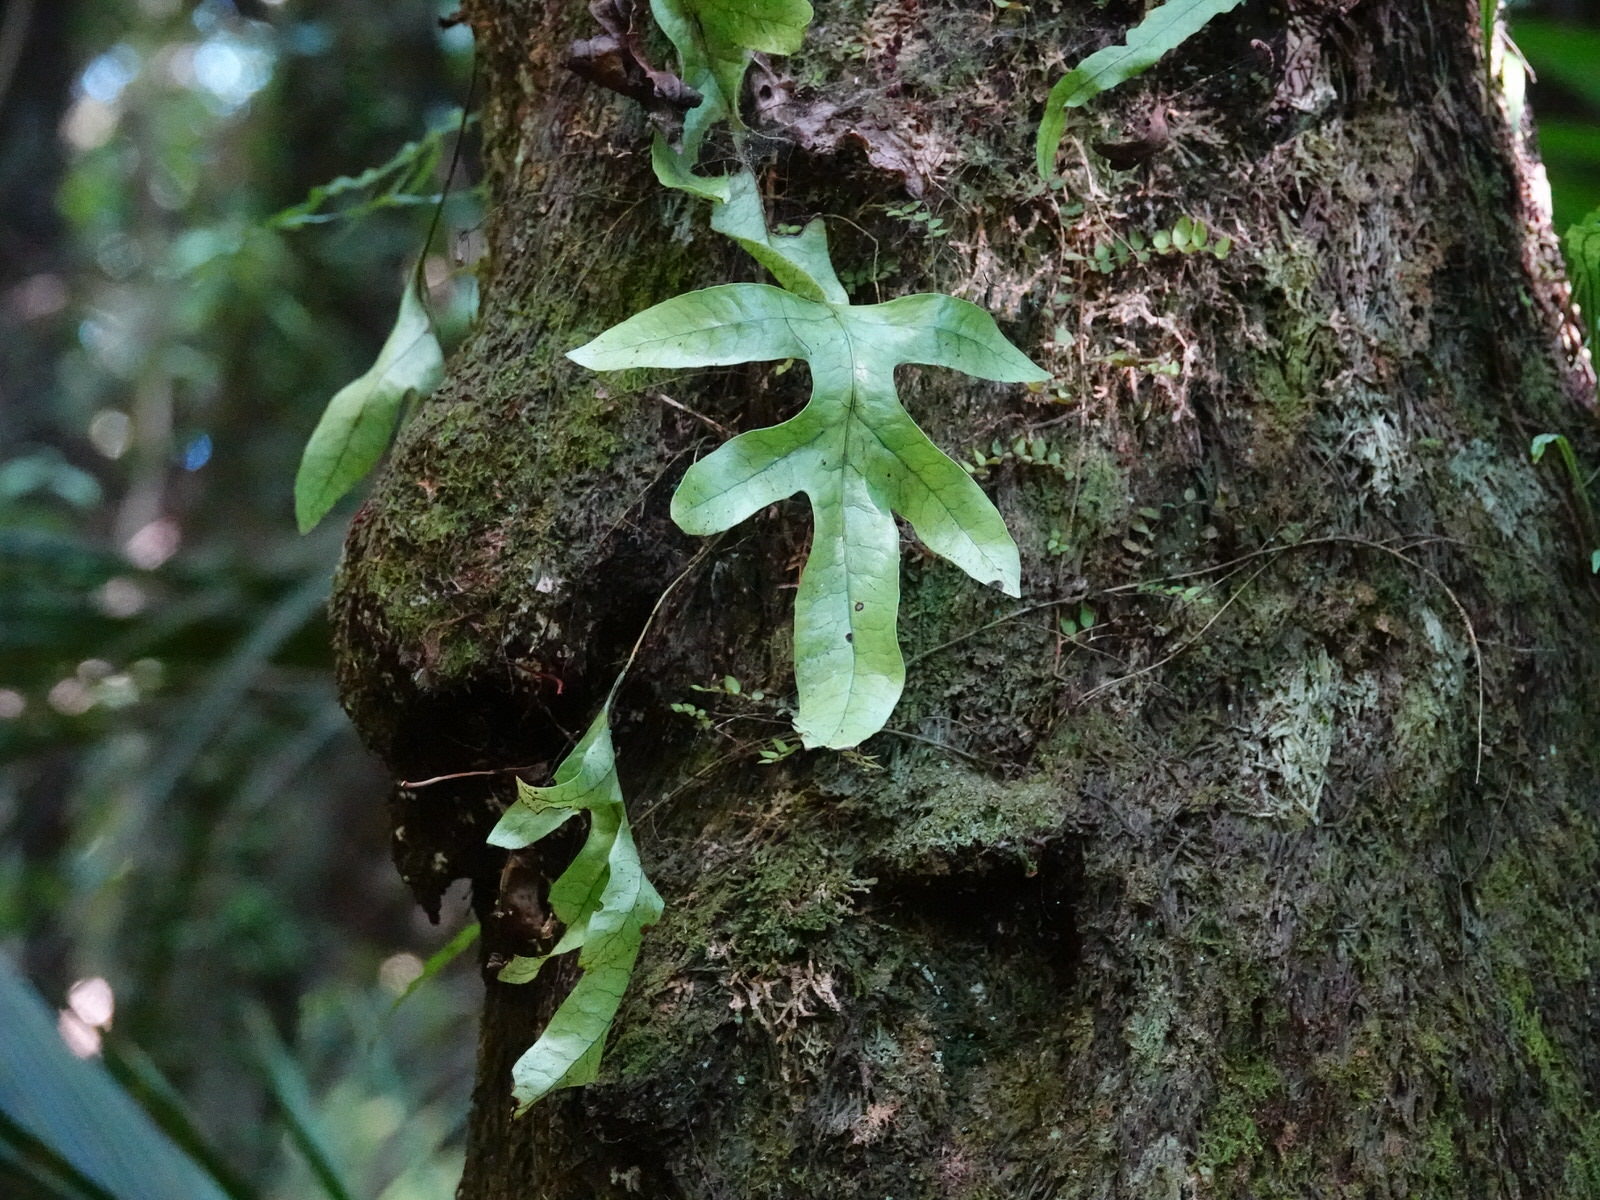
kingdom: Plantae
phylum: Tracheophyta
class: Polypodiopsida
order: Polypodiales
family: Polypodiaceae
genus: Lecanopteris
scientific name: Lecanopteris pustulata
